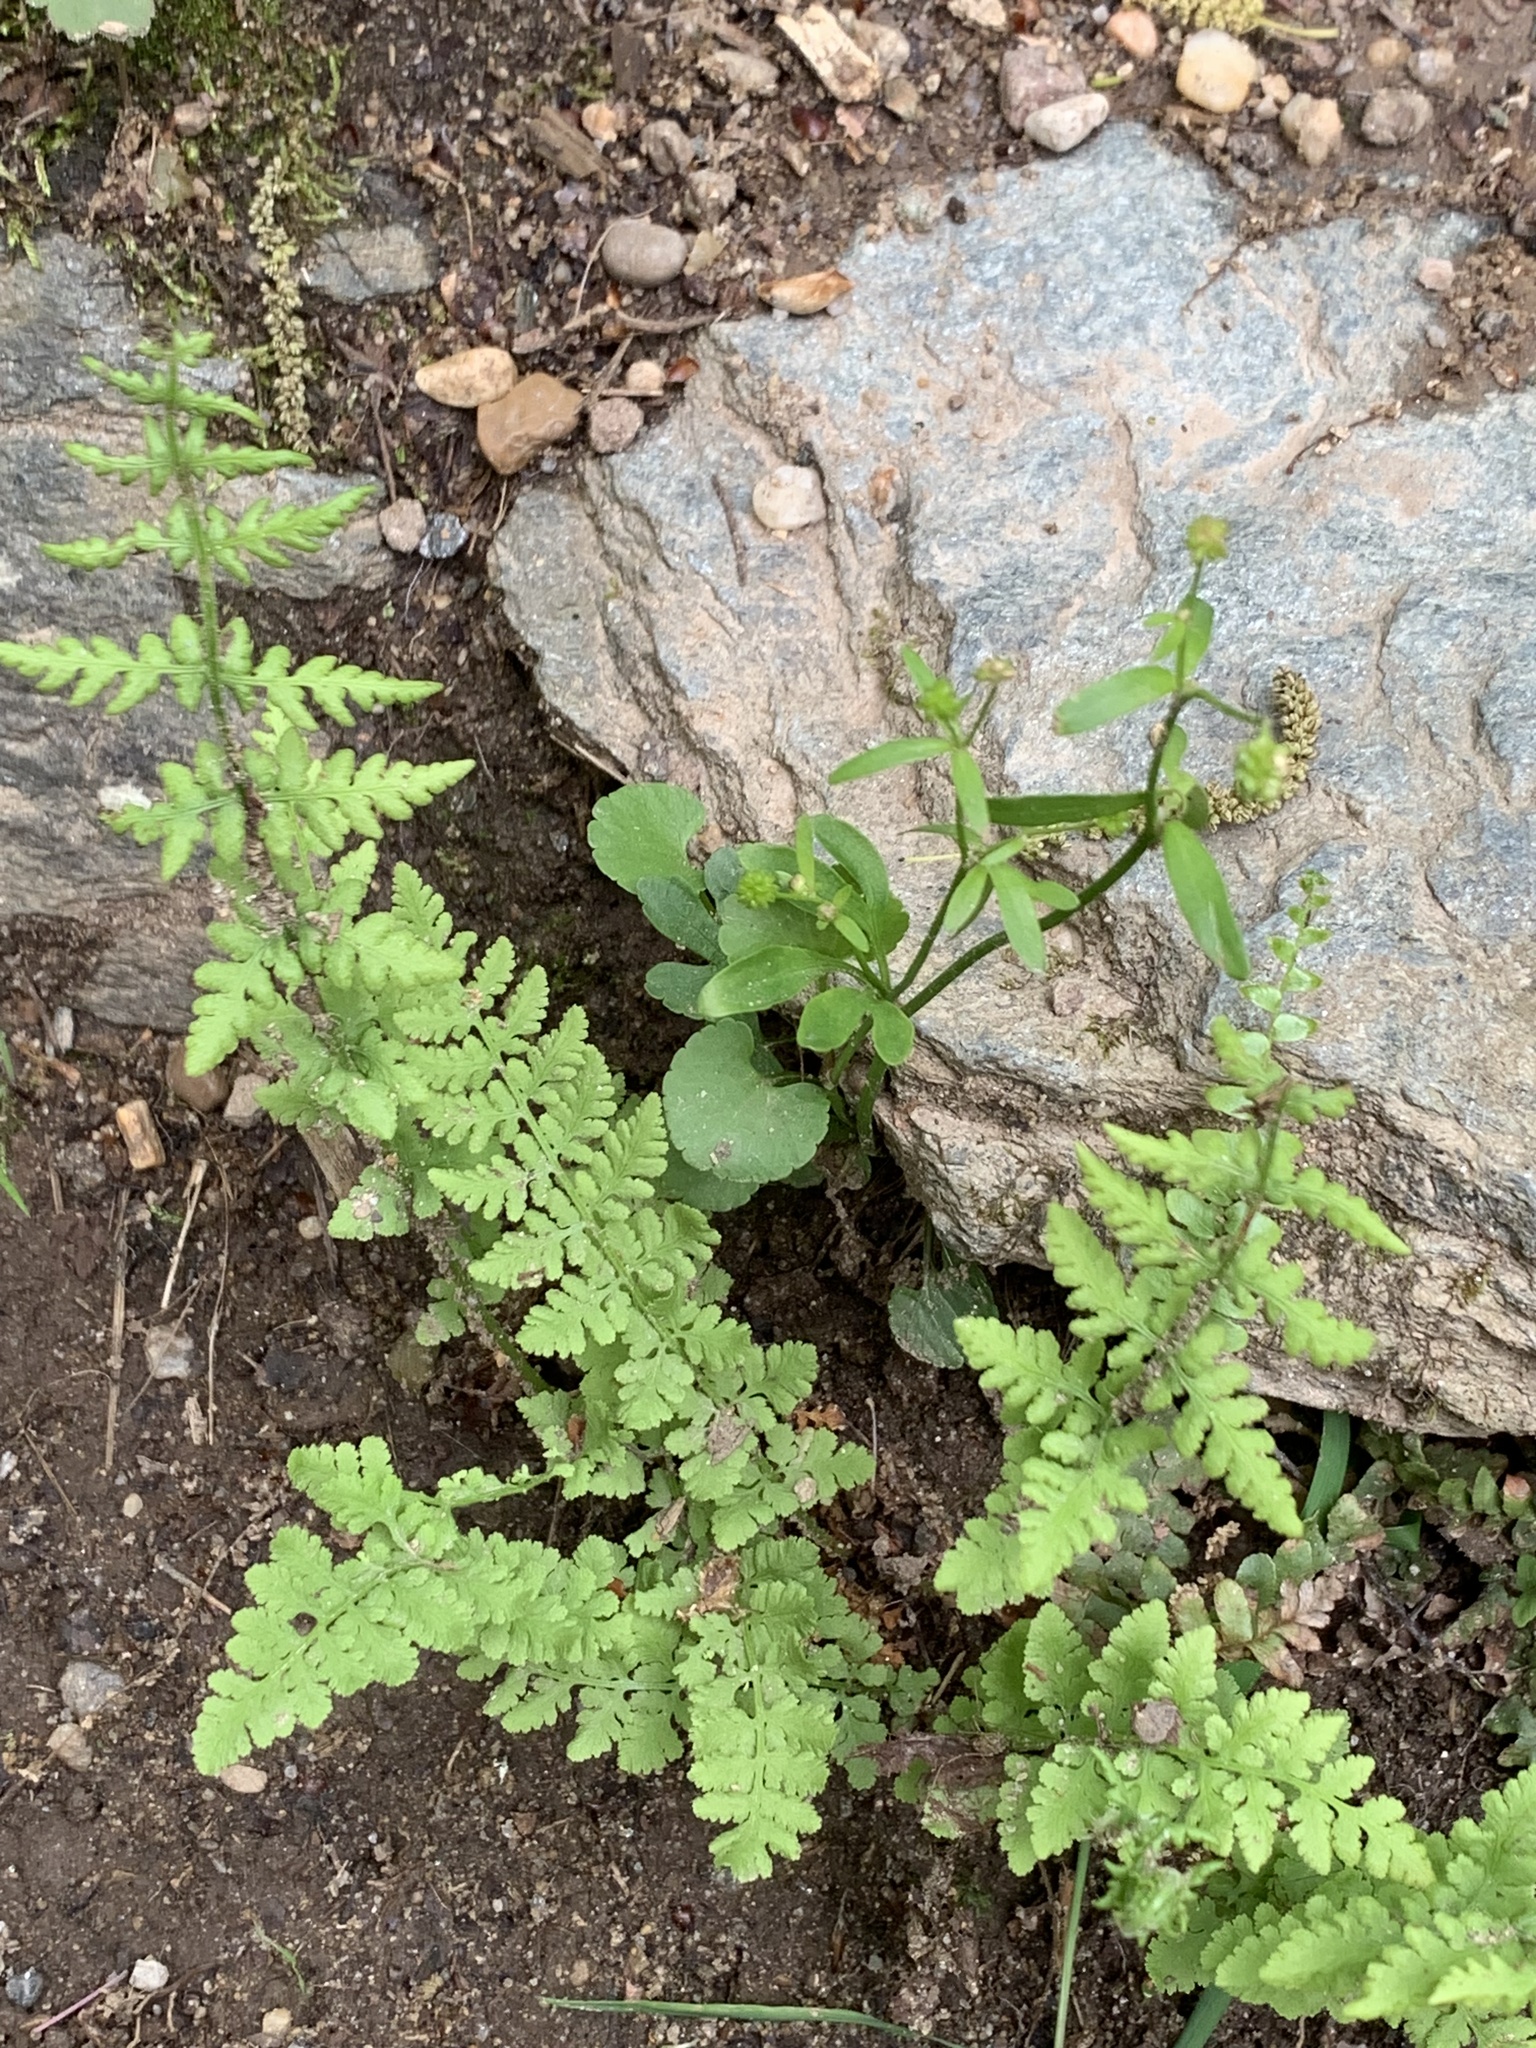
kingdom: Plantae
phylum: Tracheophyta
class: Polypodiopsida
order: Polypodiales
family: Woodsiaceae
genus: Physematium
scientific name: Physematium obtusum
